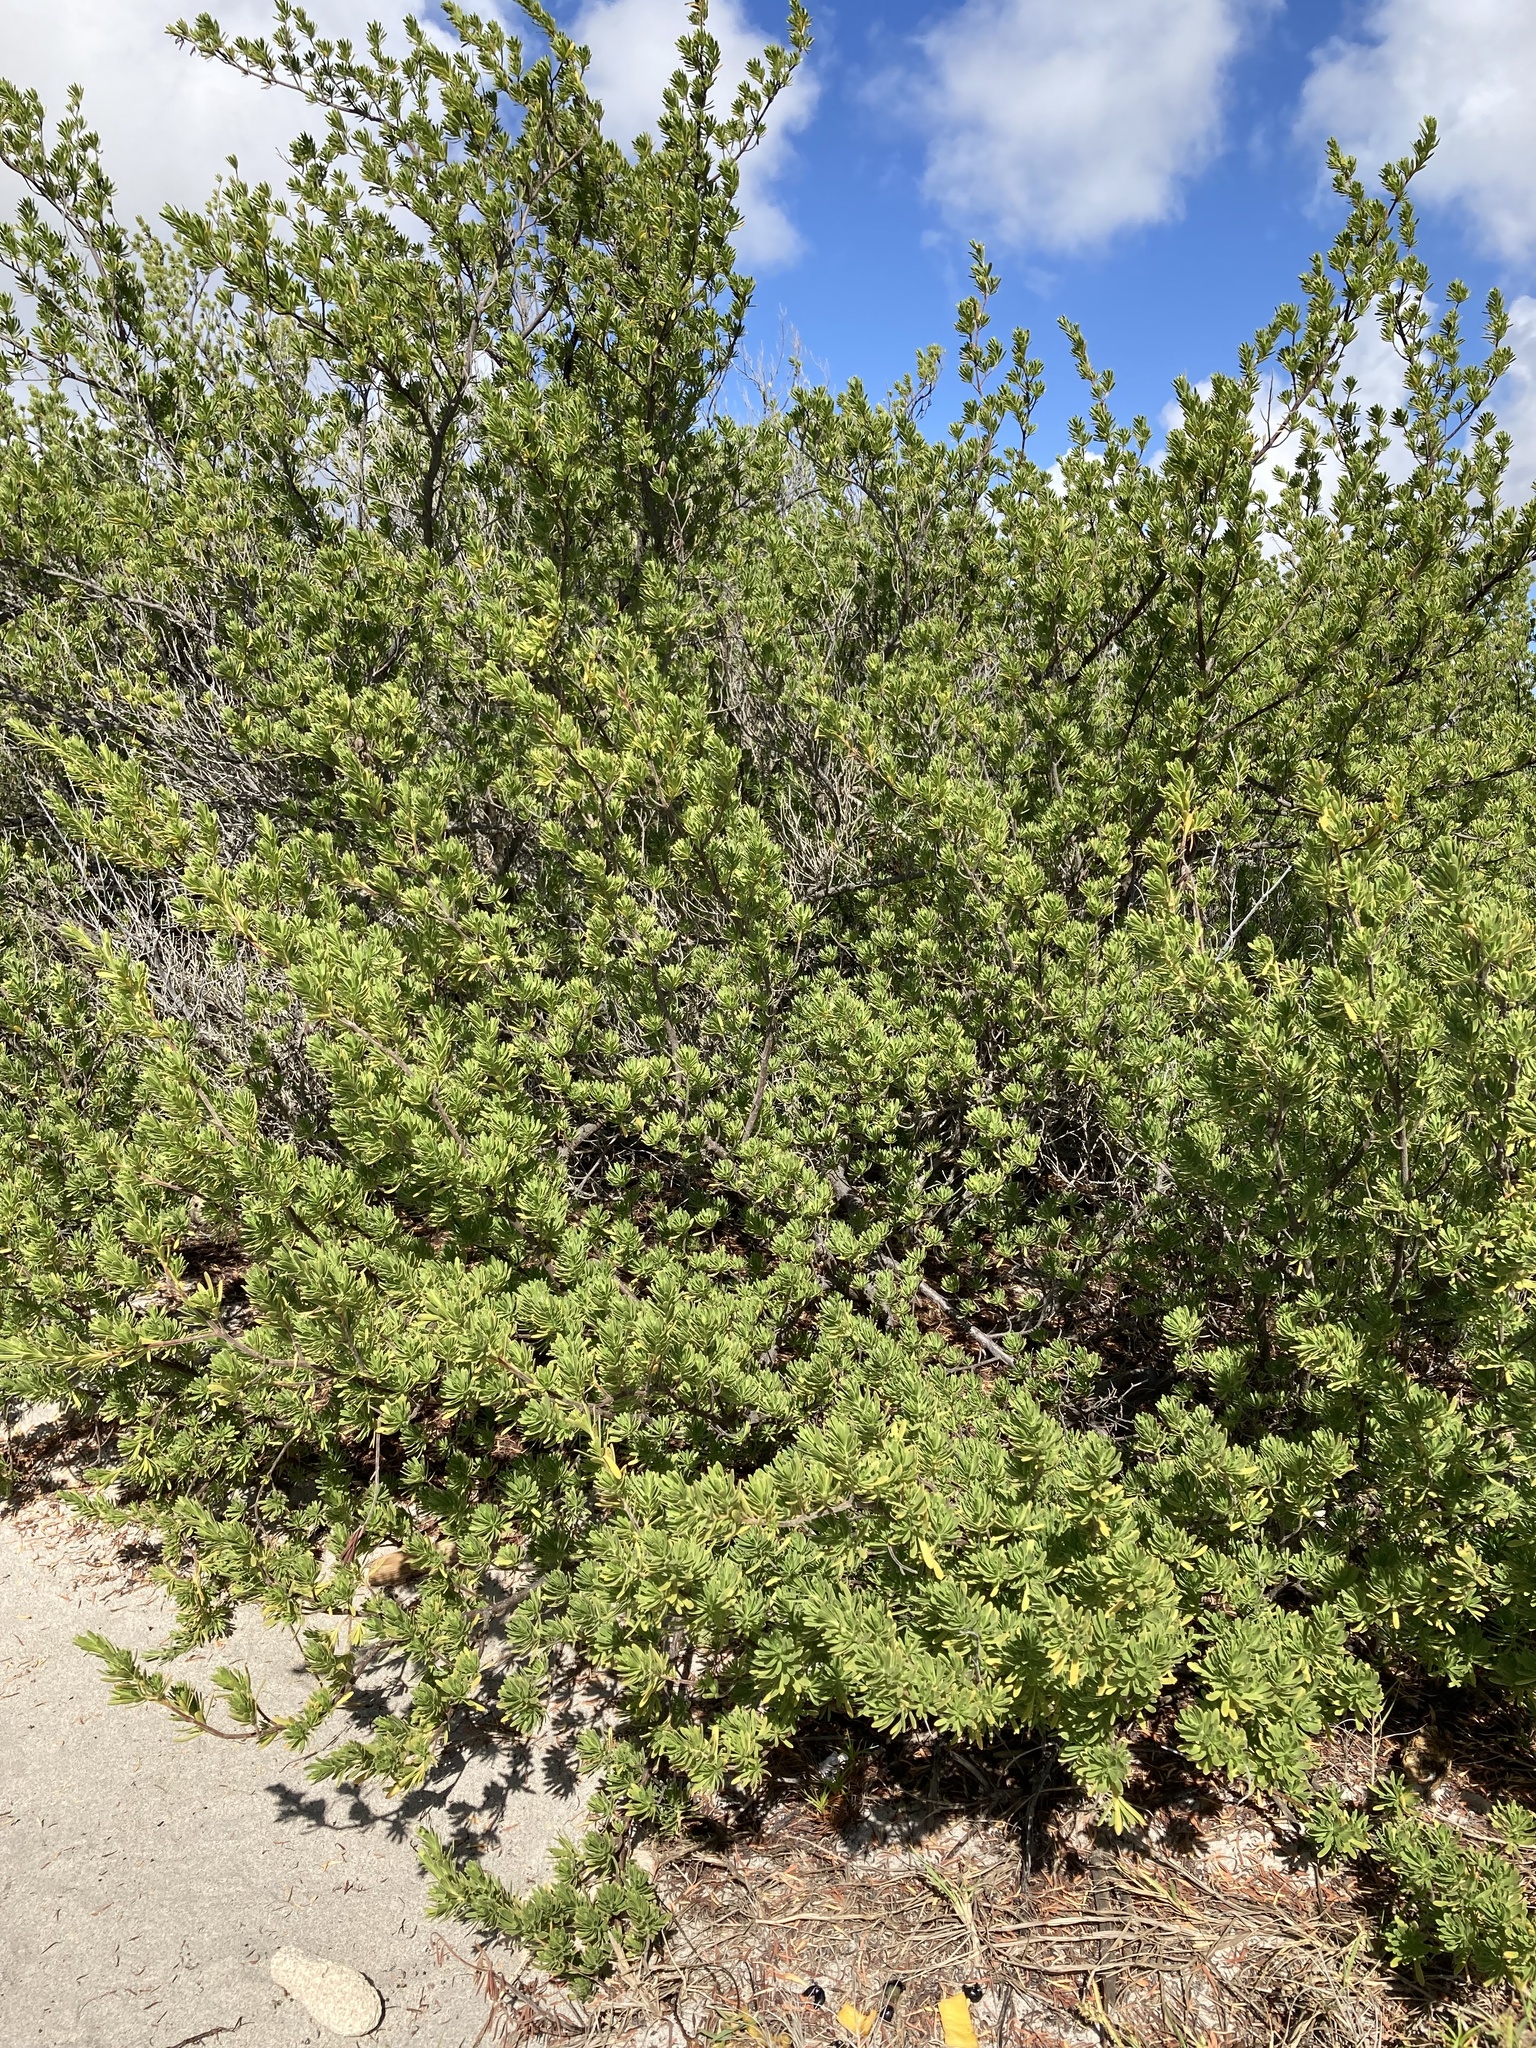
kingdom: Plantae
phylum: Tracheophyta
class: Magnoliopsida
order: Fabales
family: Surianaceae
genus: Suriana
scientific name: Suriana maritima
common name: Bay-cedar
